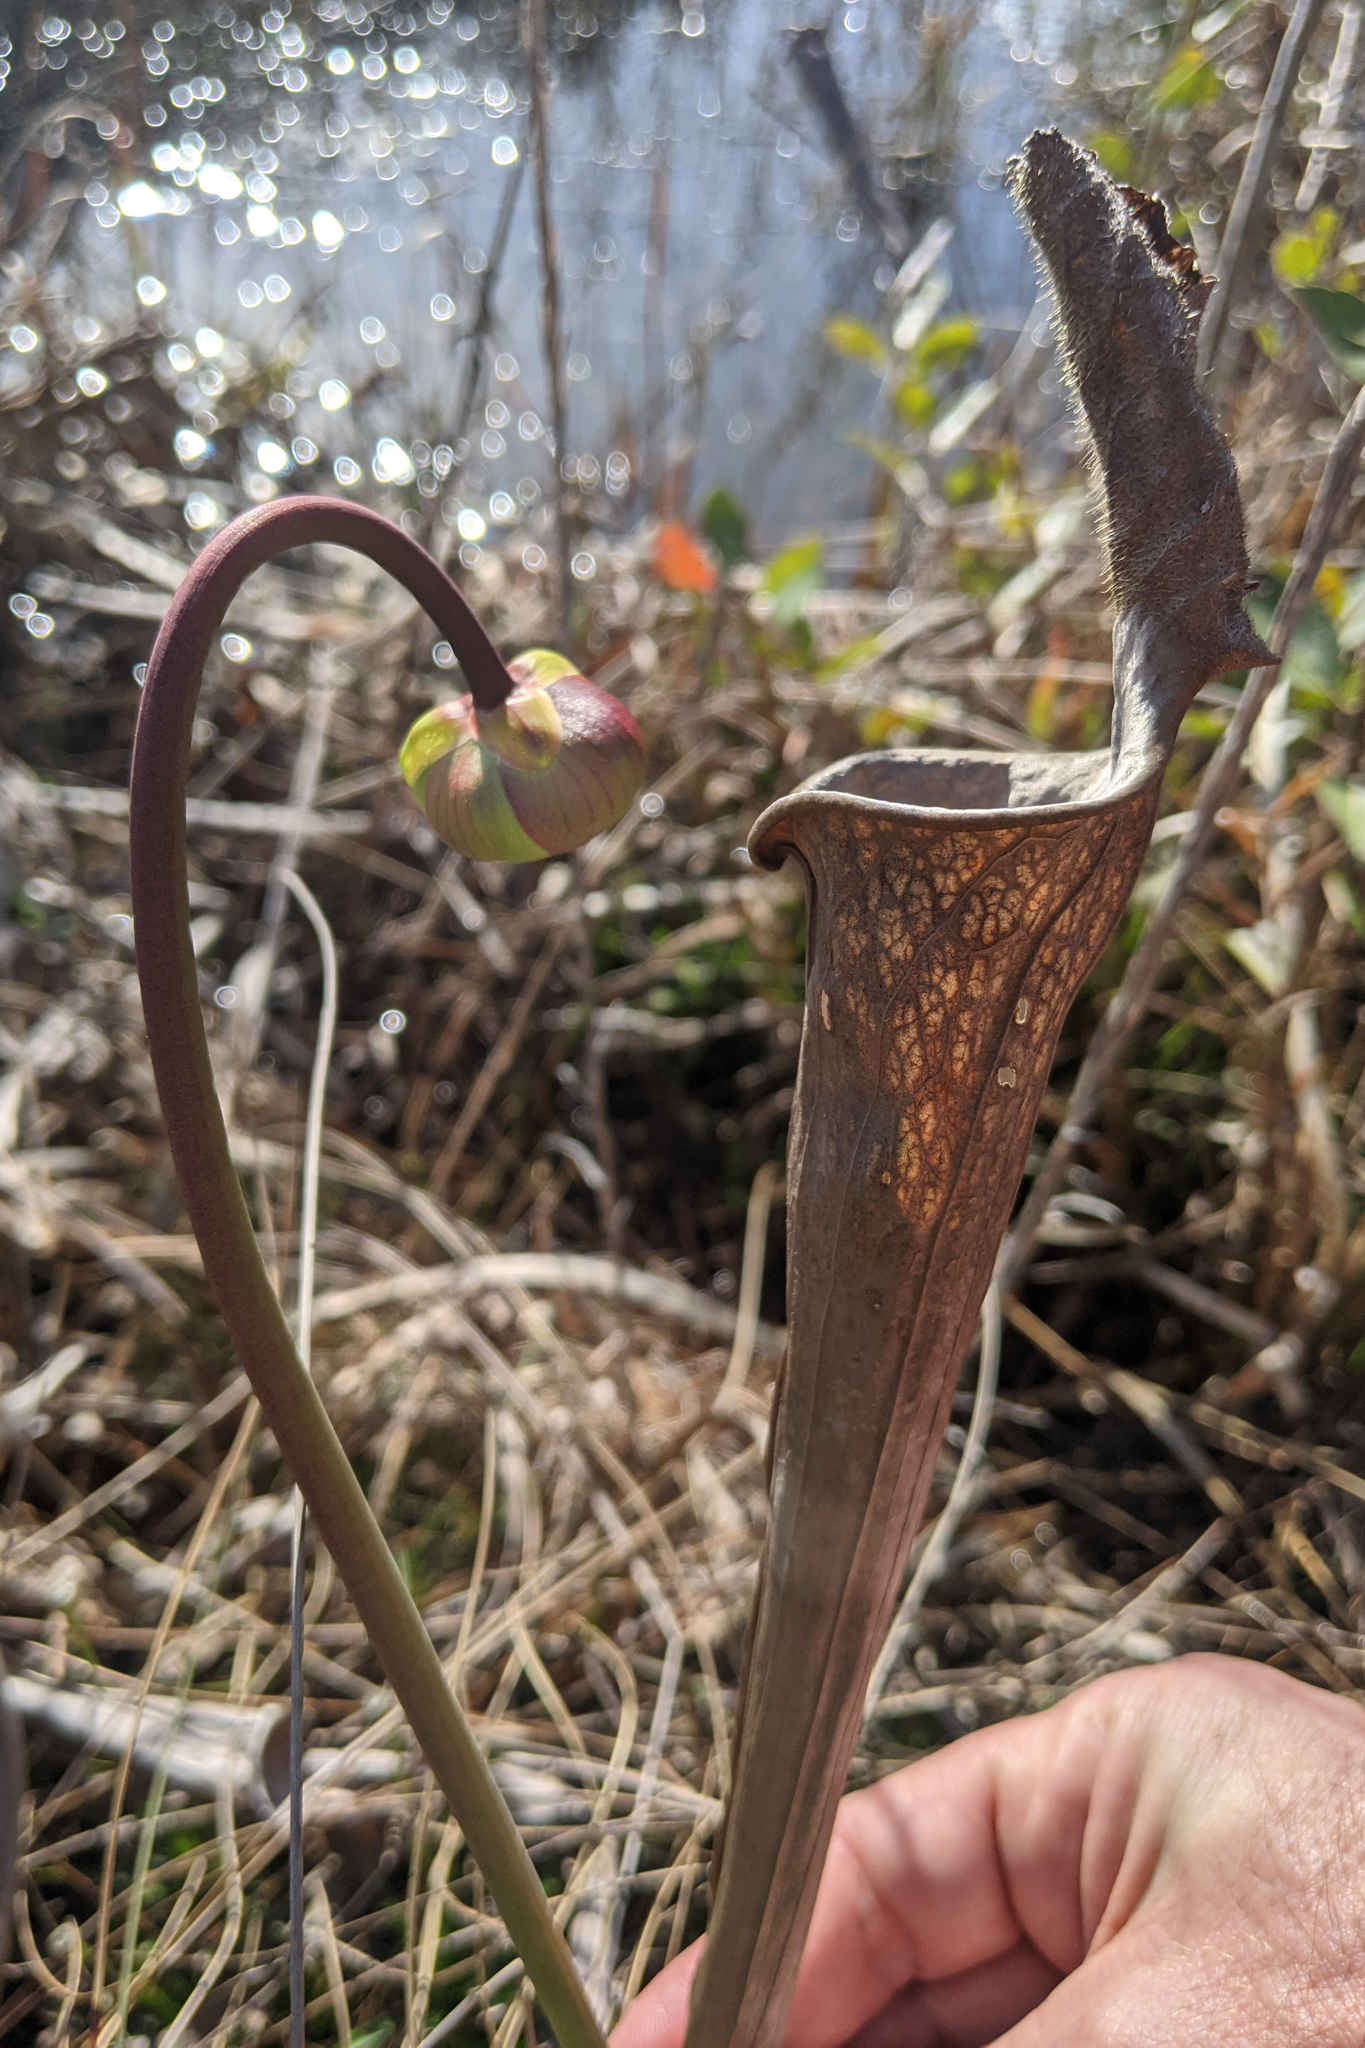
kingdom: Plantae
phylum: Tracheophyta
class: Magnoliopsida
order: Ericales
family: Sarraceniaceae
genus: Sarracenia
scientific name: Sarracenia leucophylla
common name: Purple trumpetleaf
